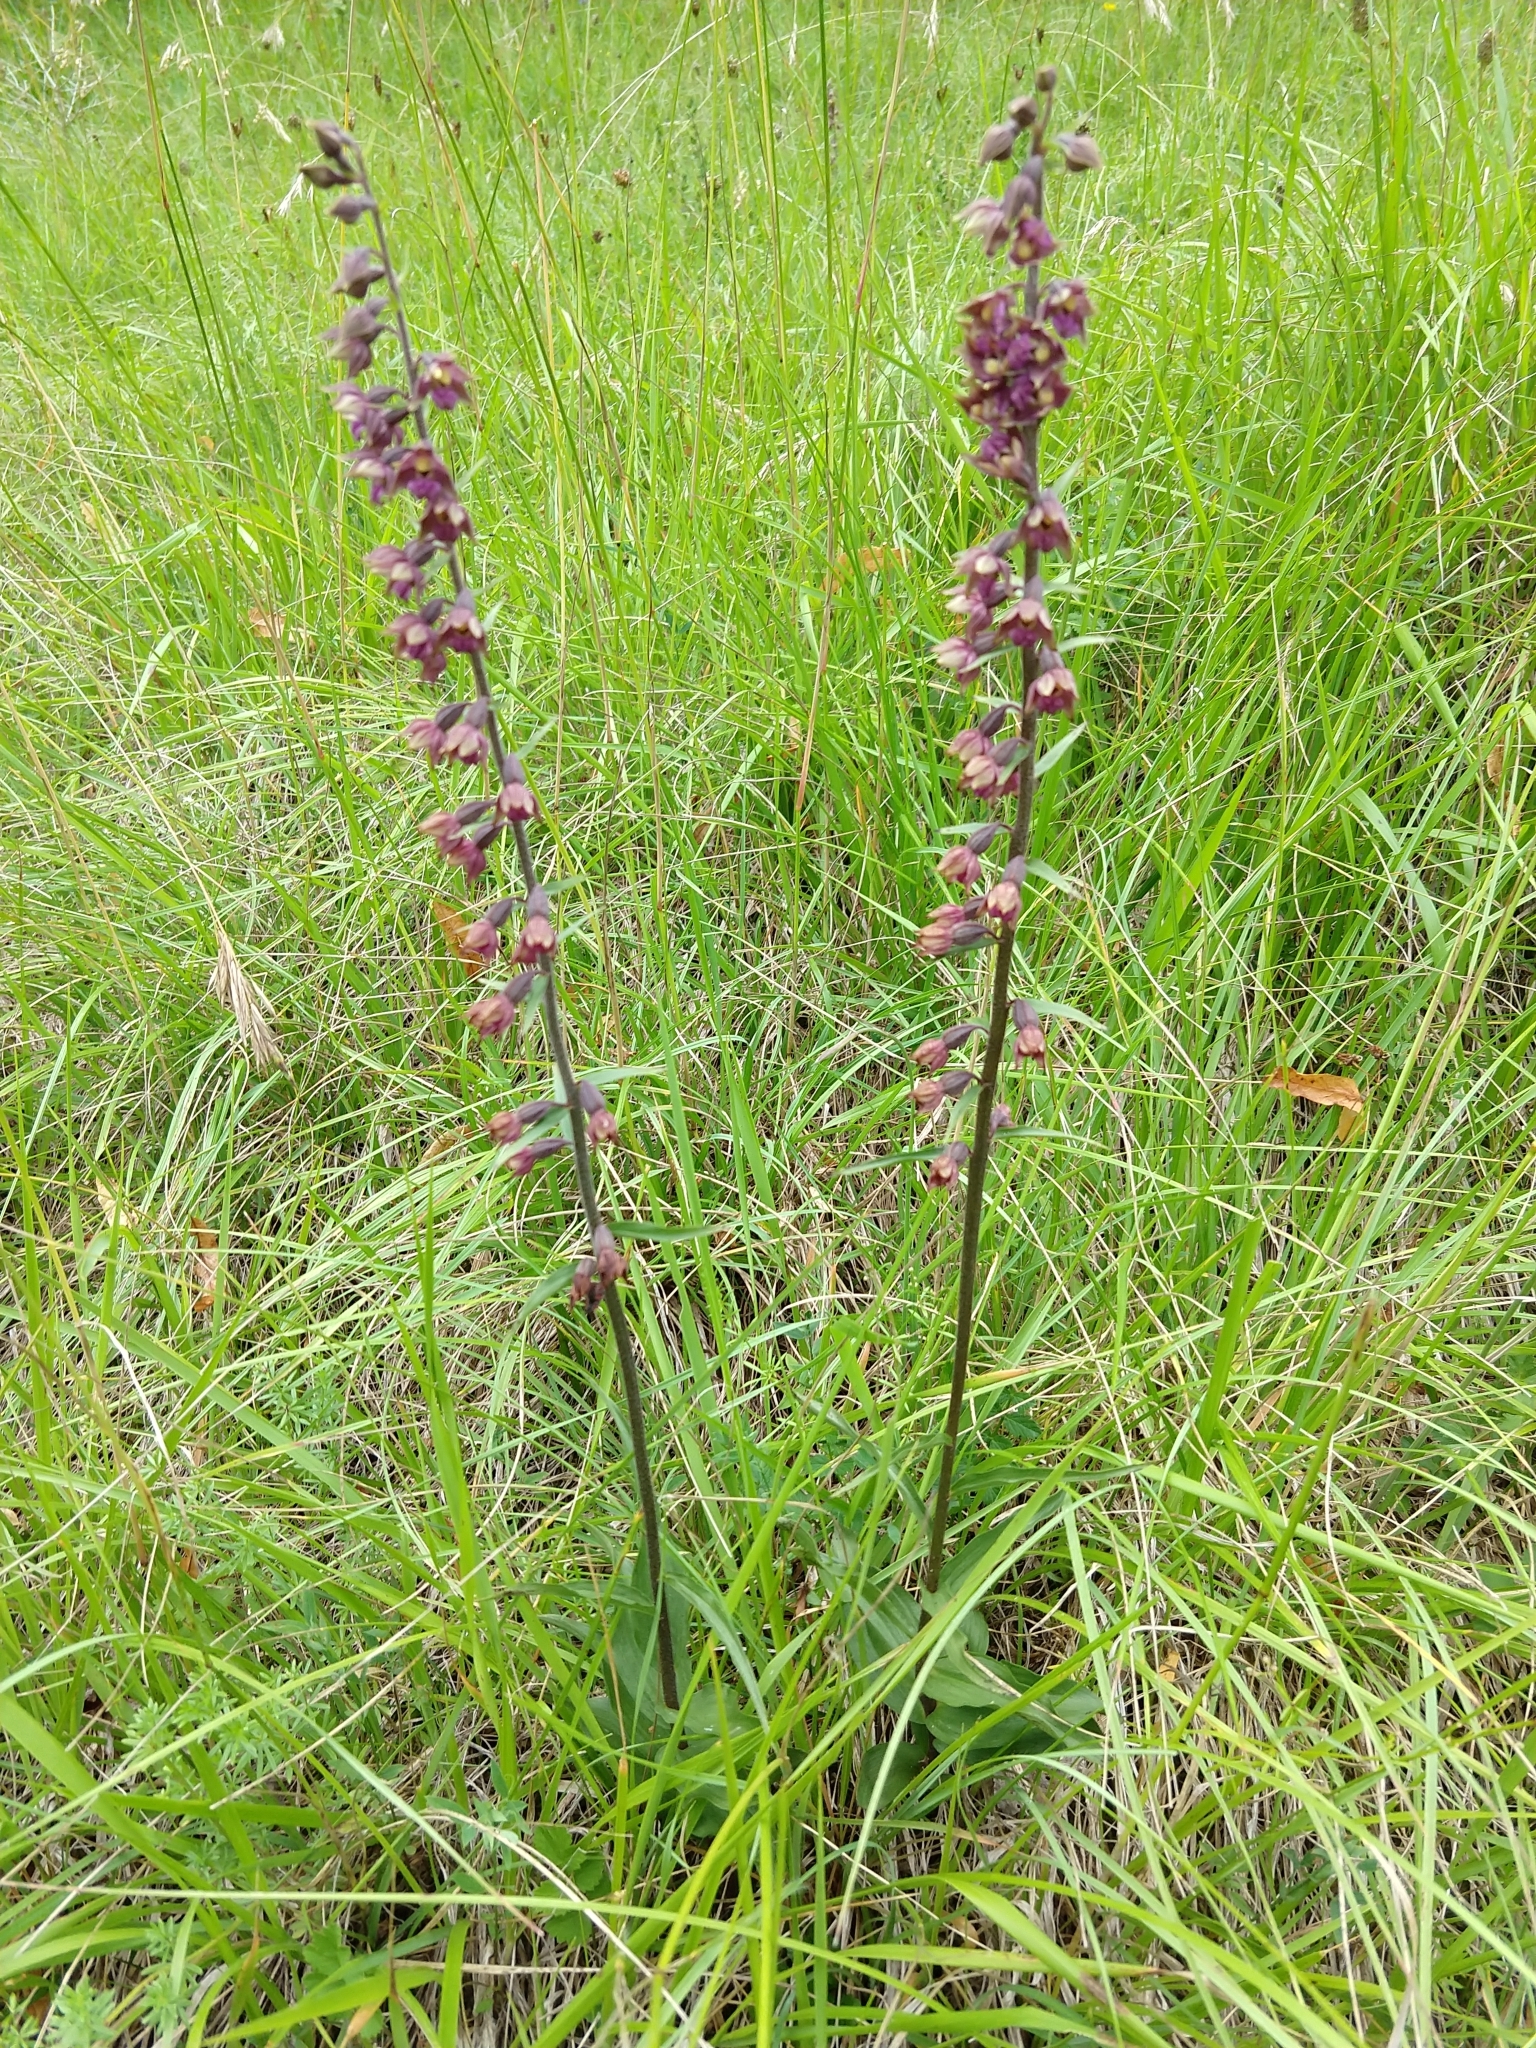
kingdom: Plantae
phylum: Tracheophyta
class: Liliopsida
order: Asparagales
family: Orchidaceae
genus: Epipactis
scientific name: Epipactis atrorubens
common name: Dark-red helleborine
